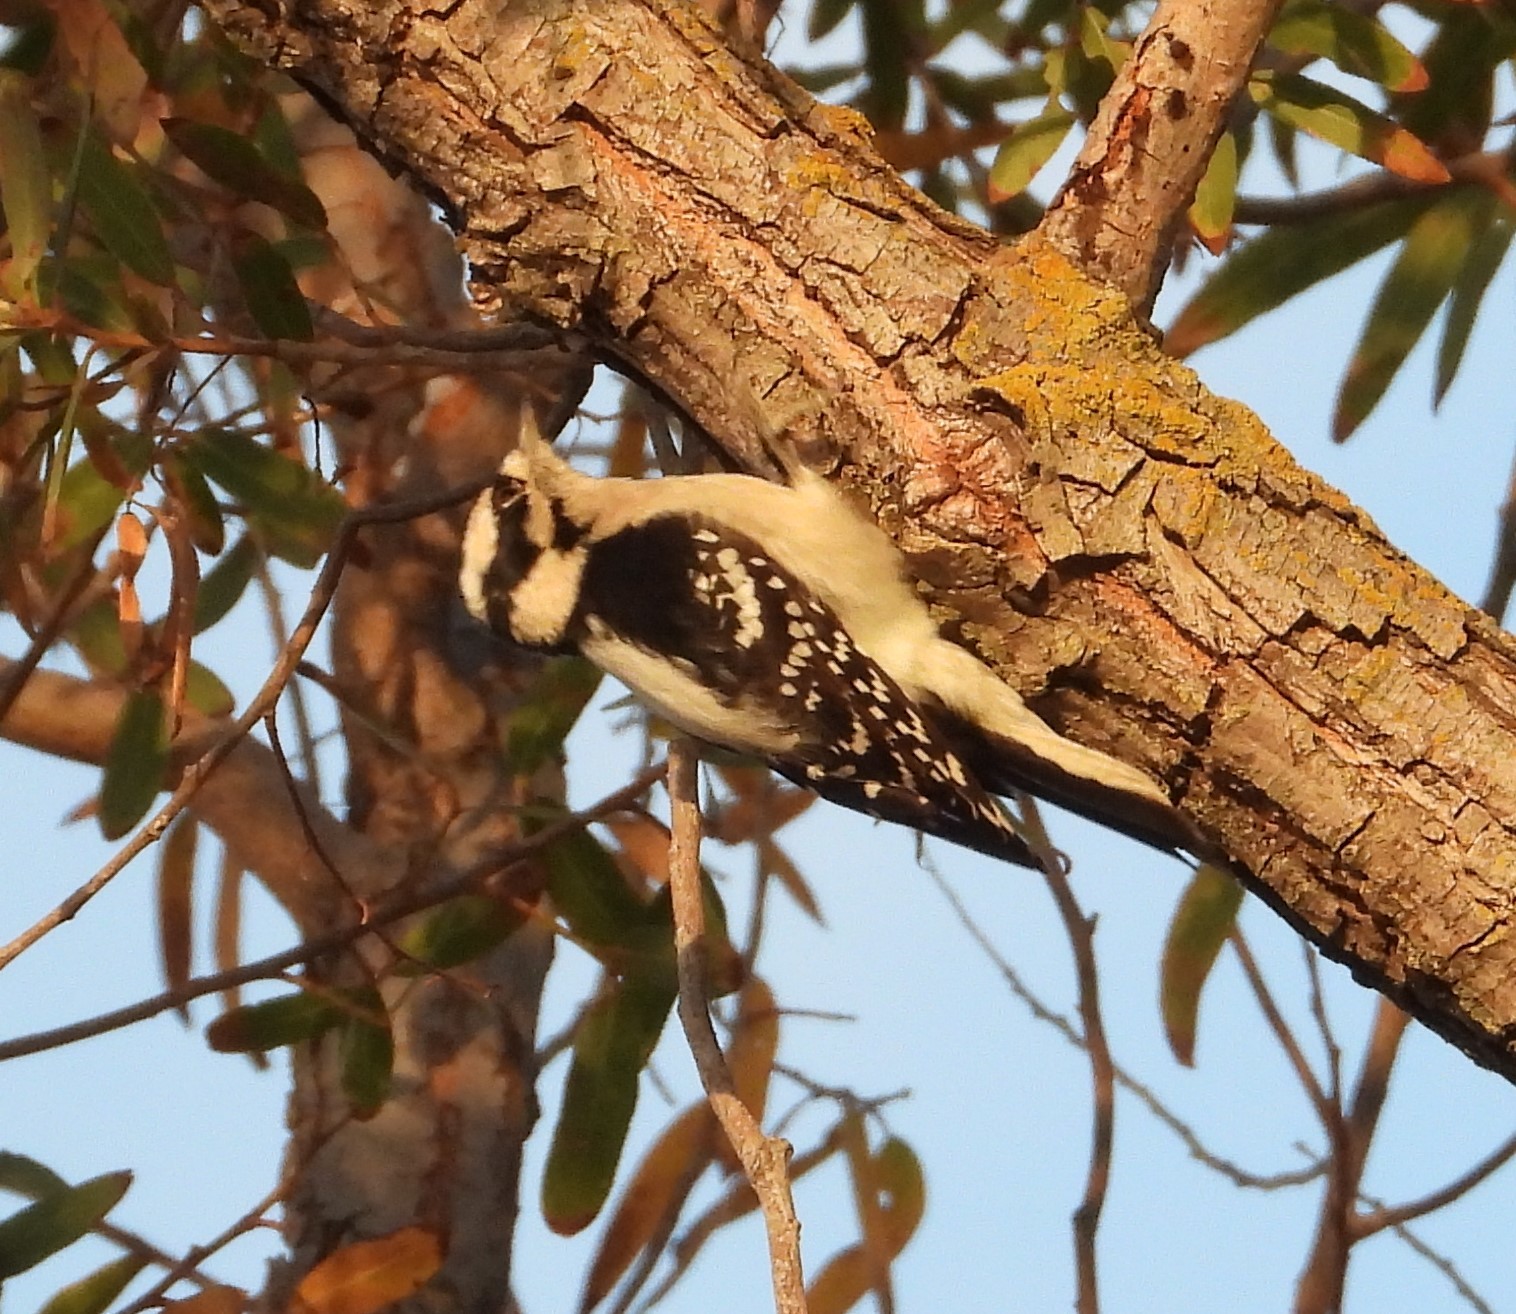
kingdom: Animalia
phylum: Chordata
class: Aves
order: Piciformes
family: Picidae
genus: Dryobates
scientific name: Dryobates pubescens
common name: Downy woodpecker
